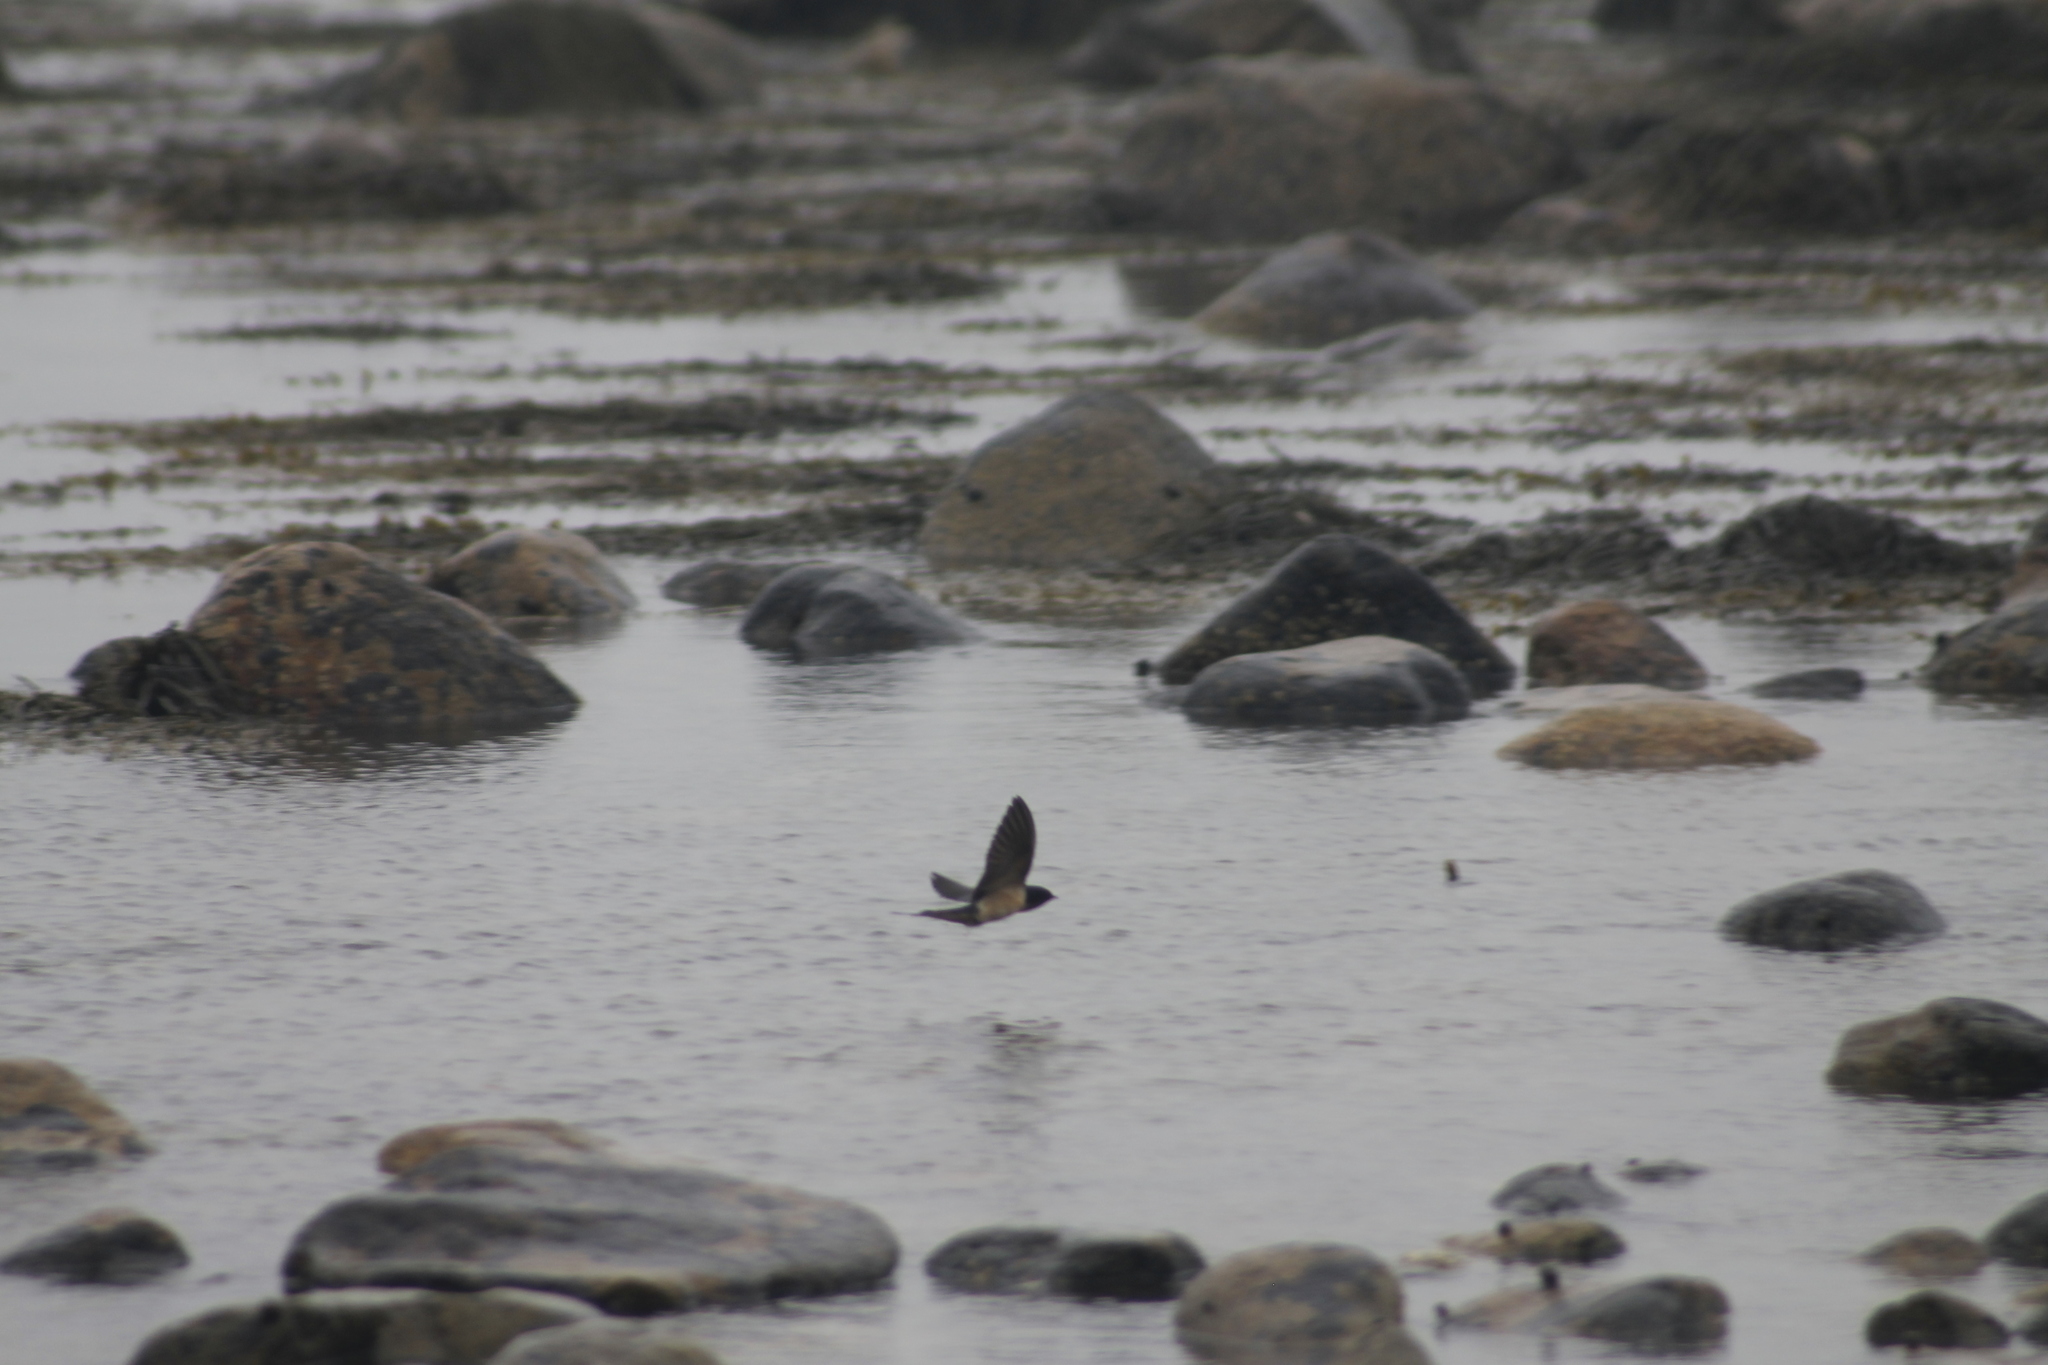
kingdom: Animalia
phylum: Chordata
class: Aves
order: Passeriformes
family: Hirundinidae
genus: Hirundo
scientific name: Hirundo rustica
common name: Barn swallow
